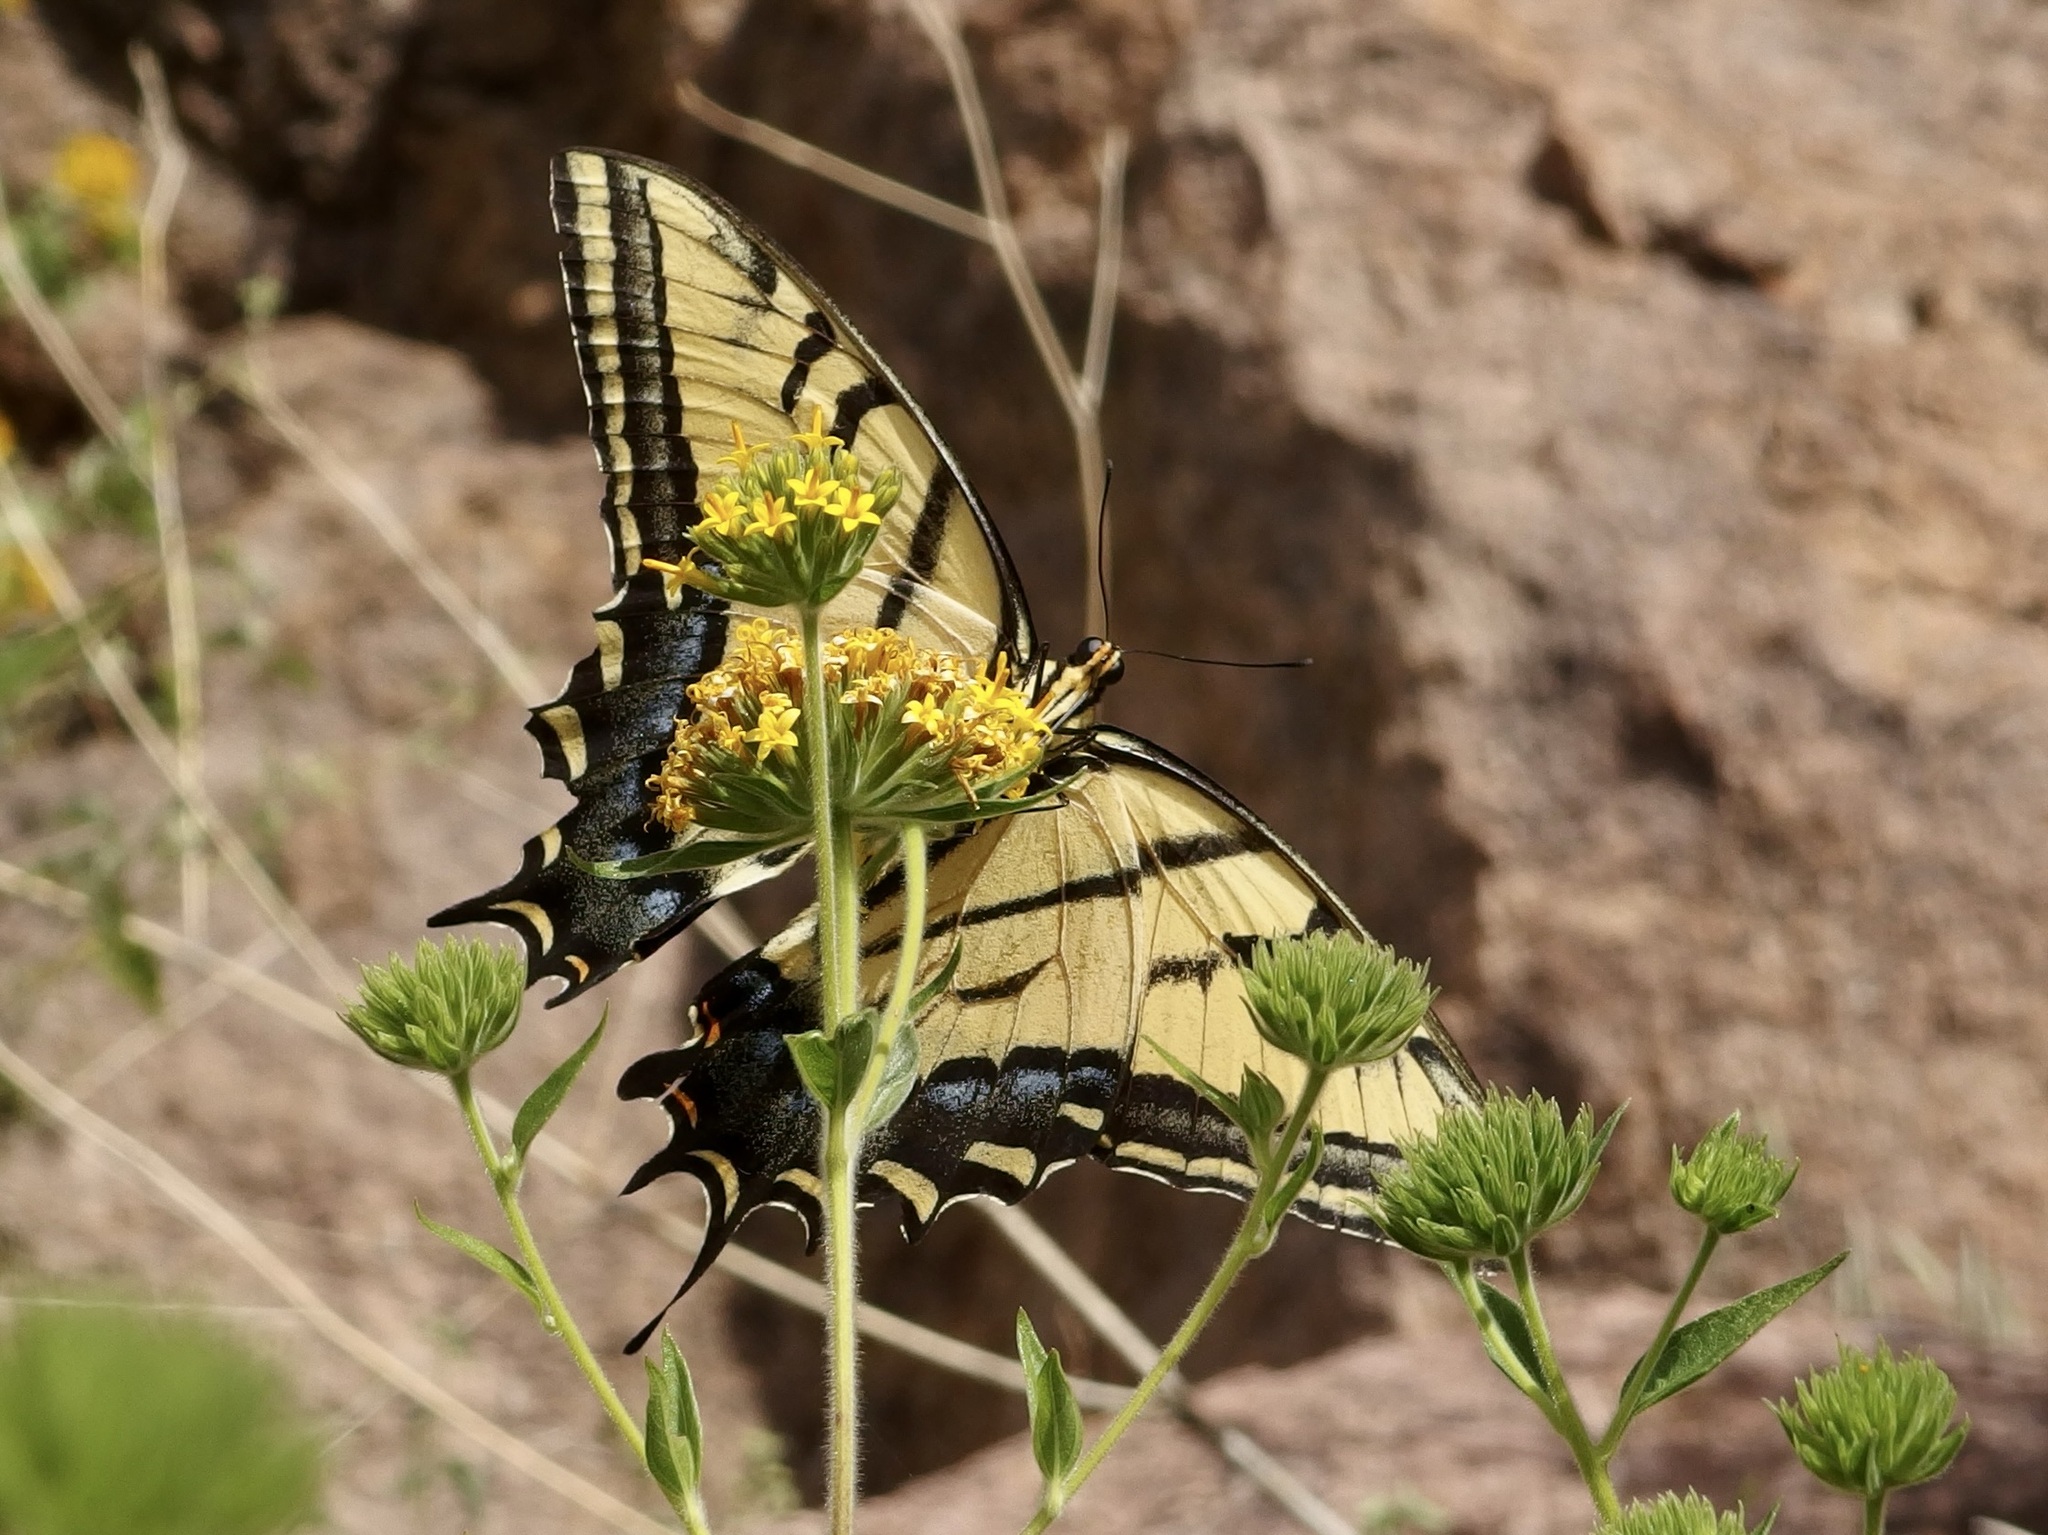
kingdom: Animalia
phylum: Arthropoda
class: Insecta
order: Lepidoptera
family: Papilionidae
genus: Papilio
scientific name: Papilio multicaudata
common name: Two-tailed tiger swallowtail
